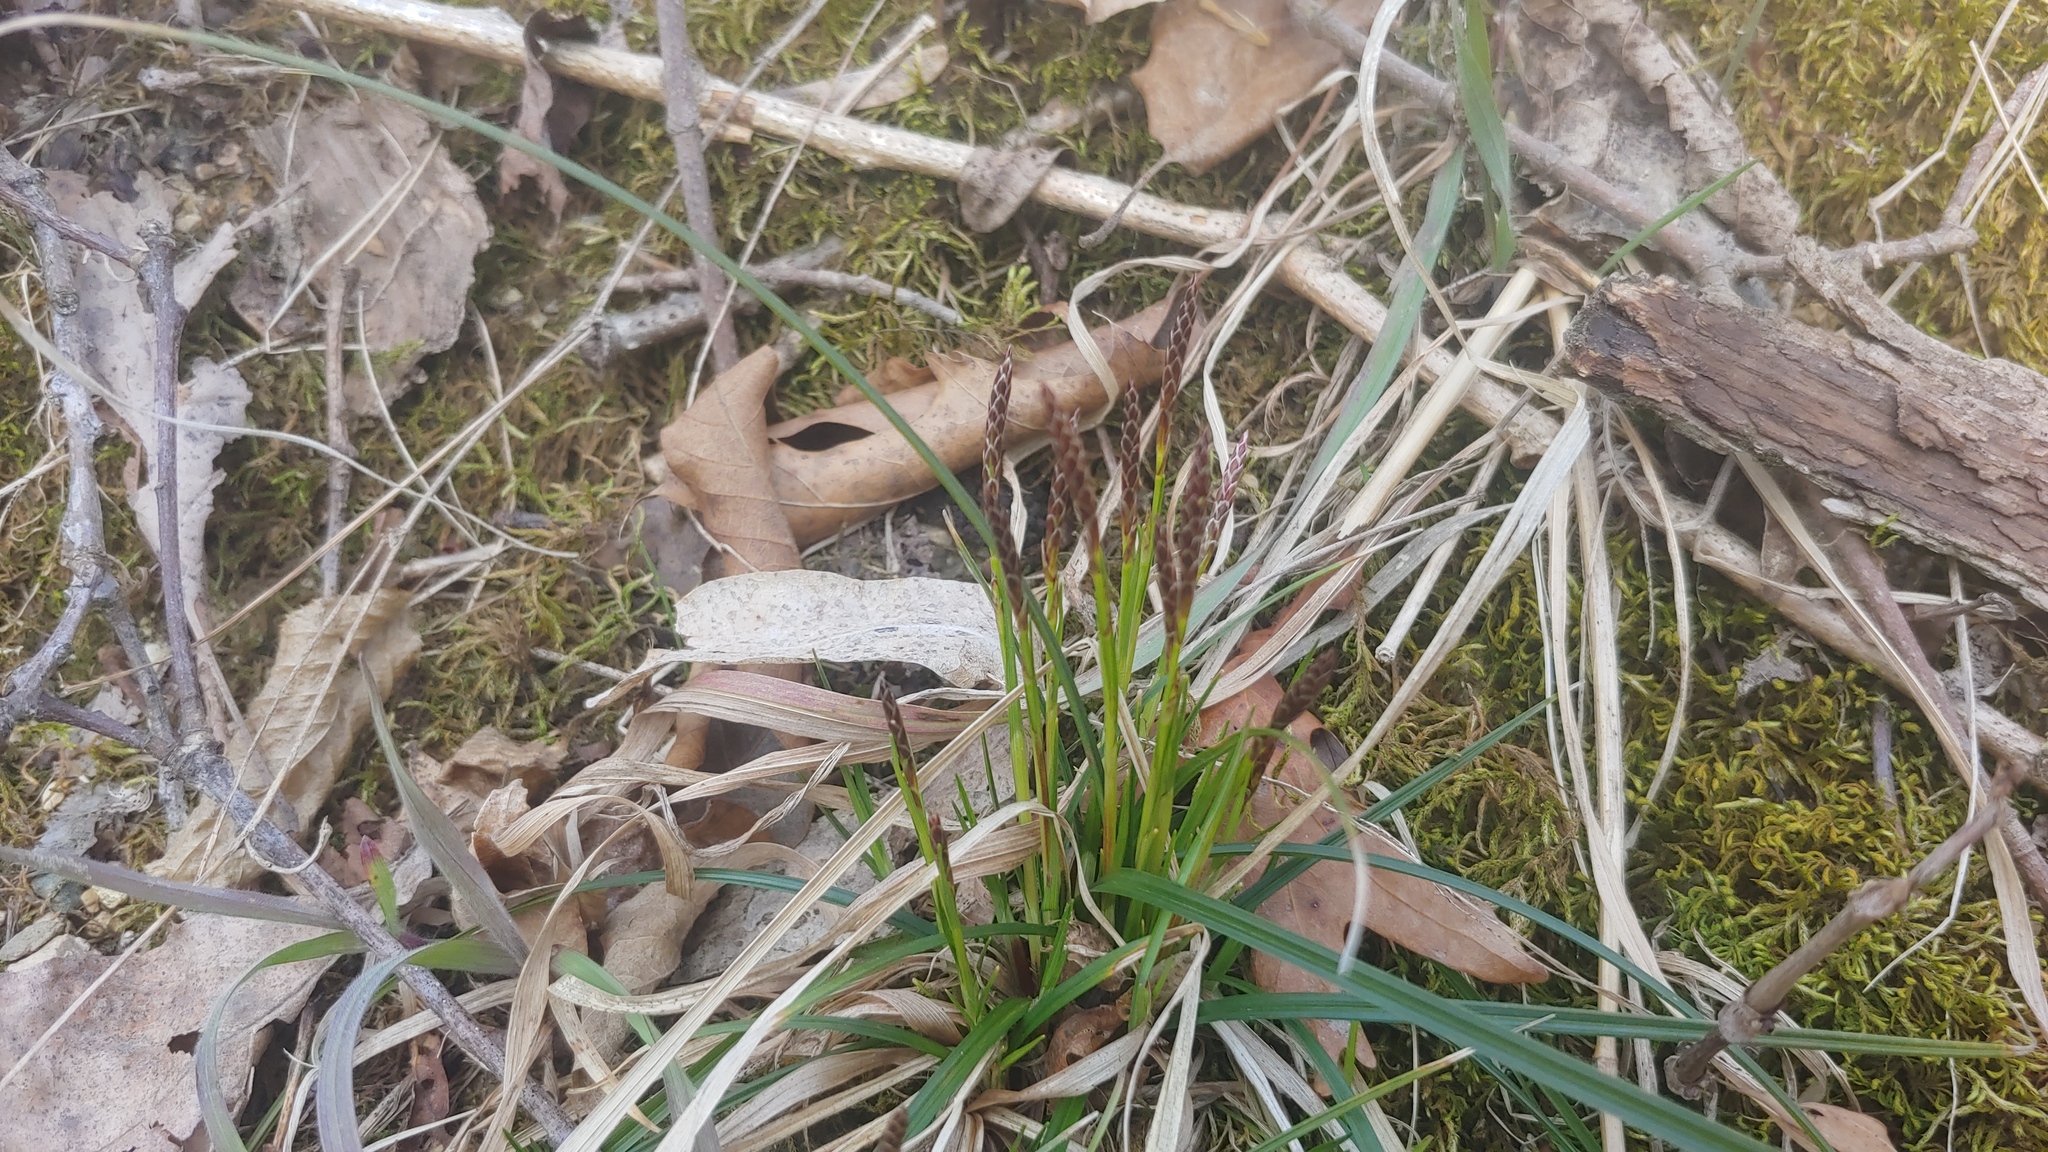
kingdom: Plantae
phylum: Tracheophyta
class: Liliopsida
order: Poales
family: Cyperaceae
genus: Carex
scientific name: Carex pensylvanica
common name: Common oak sedge
